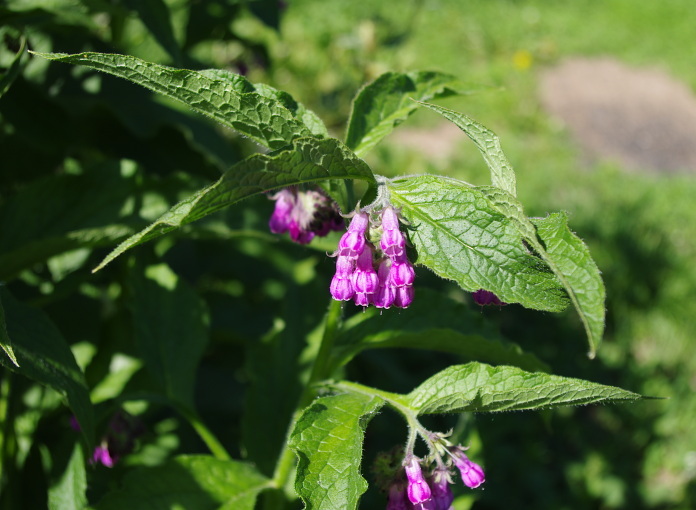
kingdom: Plantae
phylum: Tracheophyta
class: Magnoliopsida
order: Boraginales
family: Boraginaceae
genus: Symphytum
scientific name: Symphytum officinale
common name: Common comfrey
